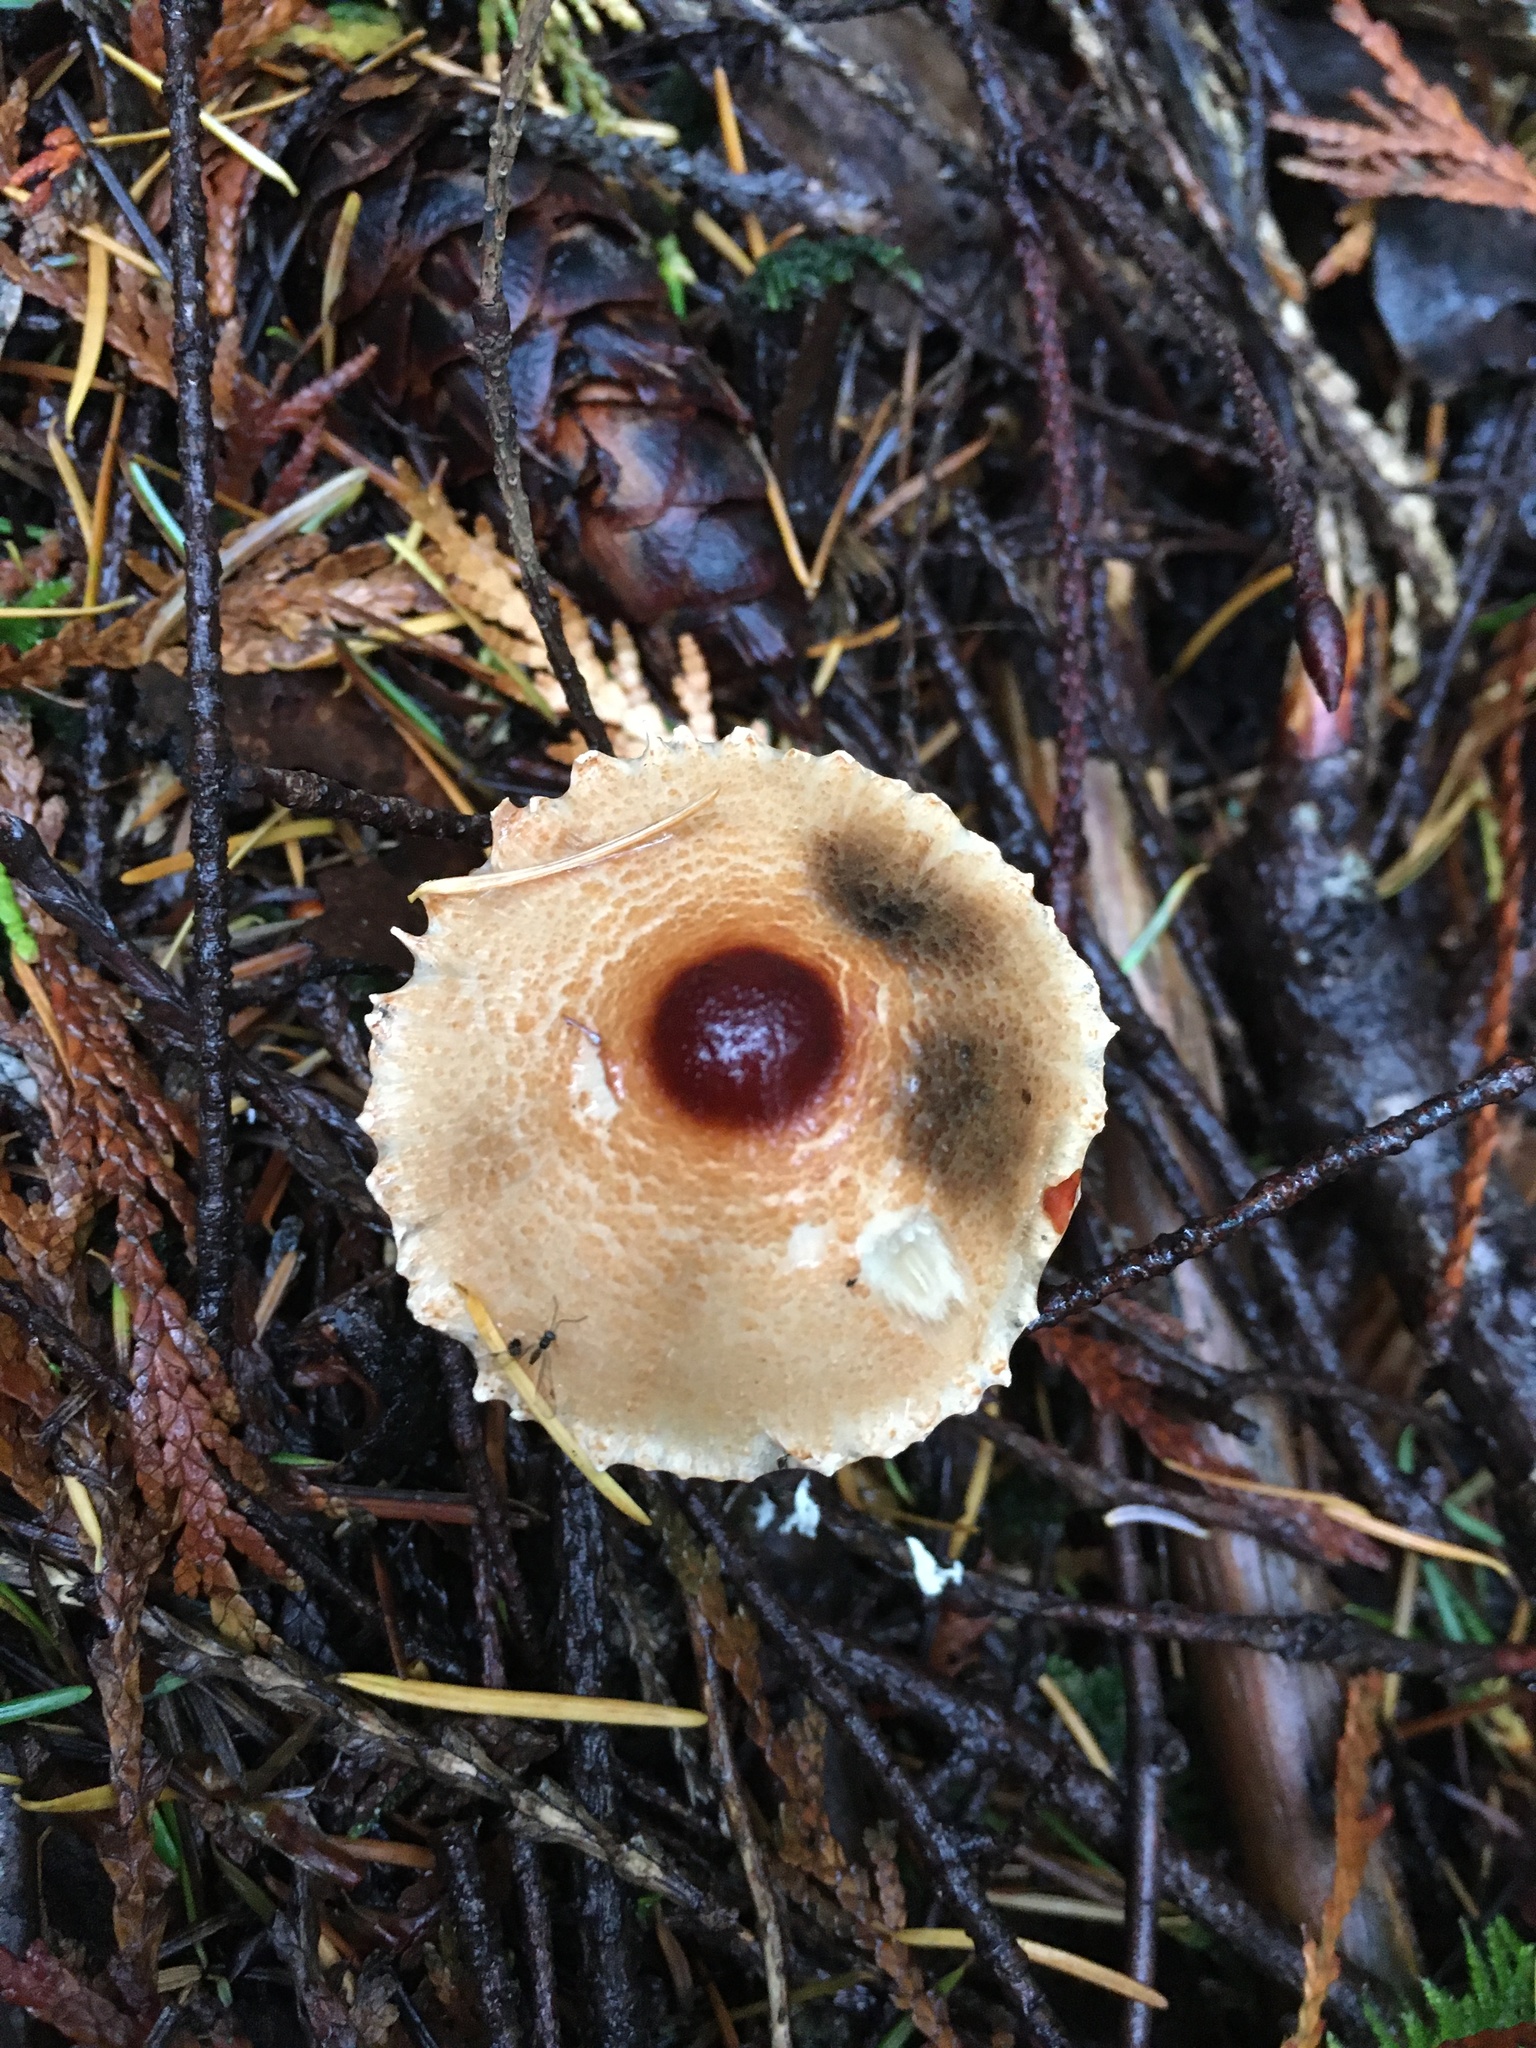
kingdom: Fungi
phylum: Basidiomycota
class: Agaricomycetes
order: Agaricales
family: Agaricaceae
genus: Lepiota
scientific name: Lepiota magnispora
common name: Yellowfoot dapperling
